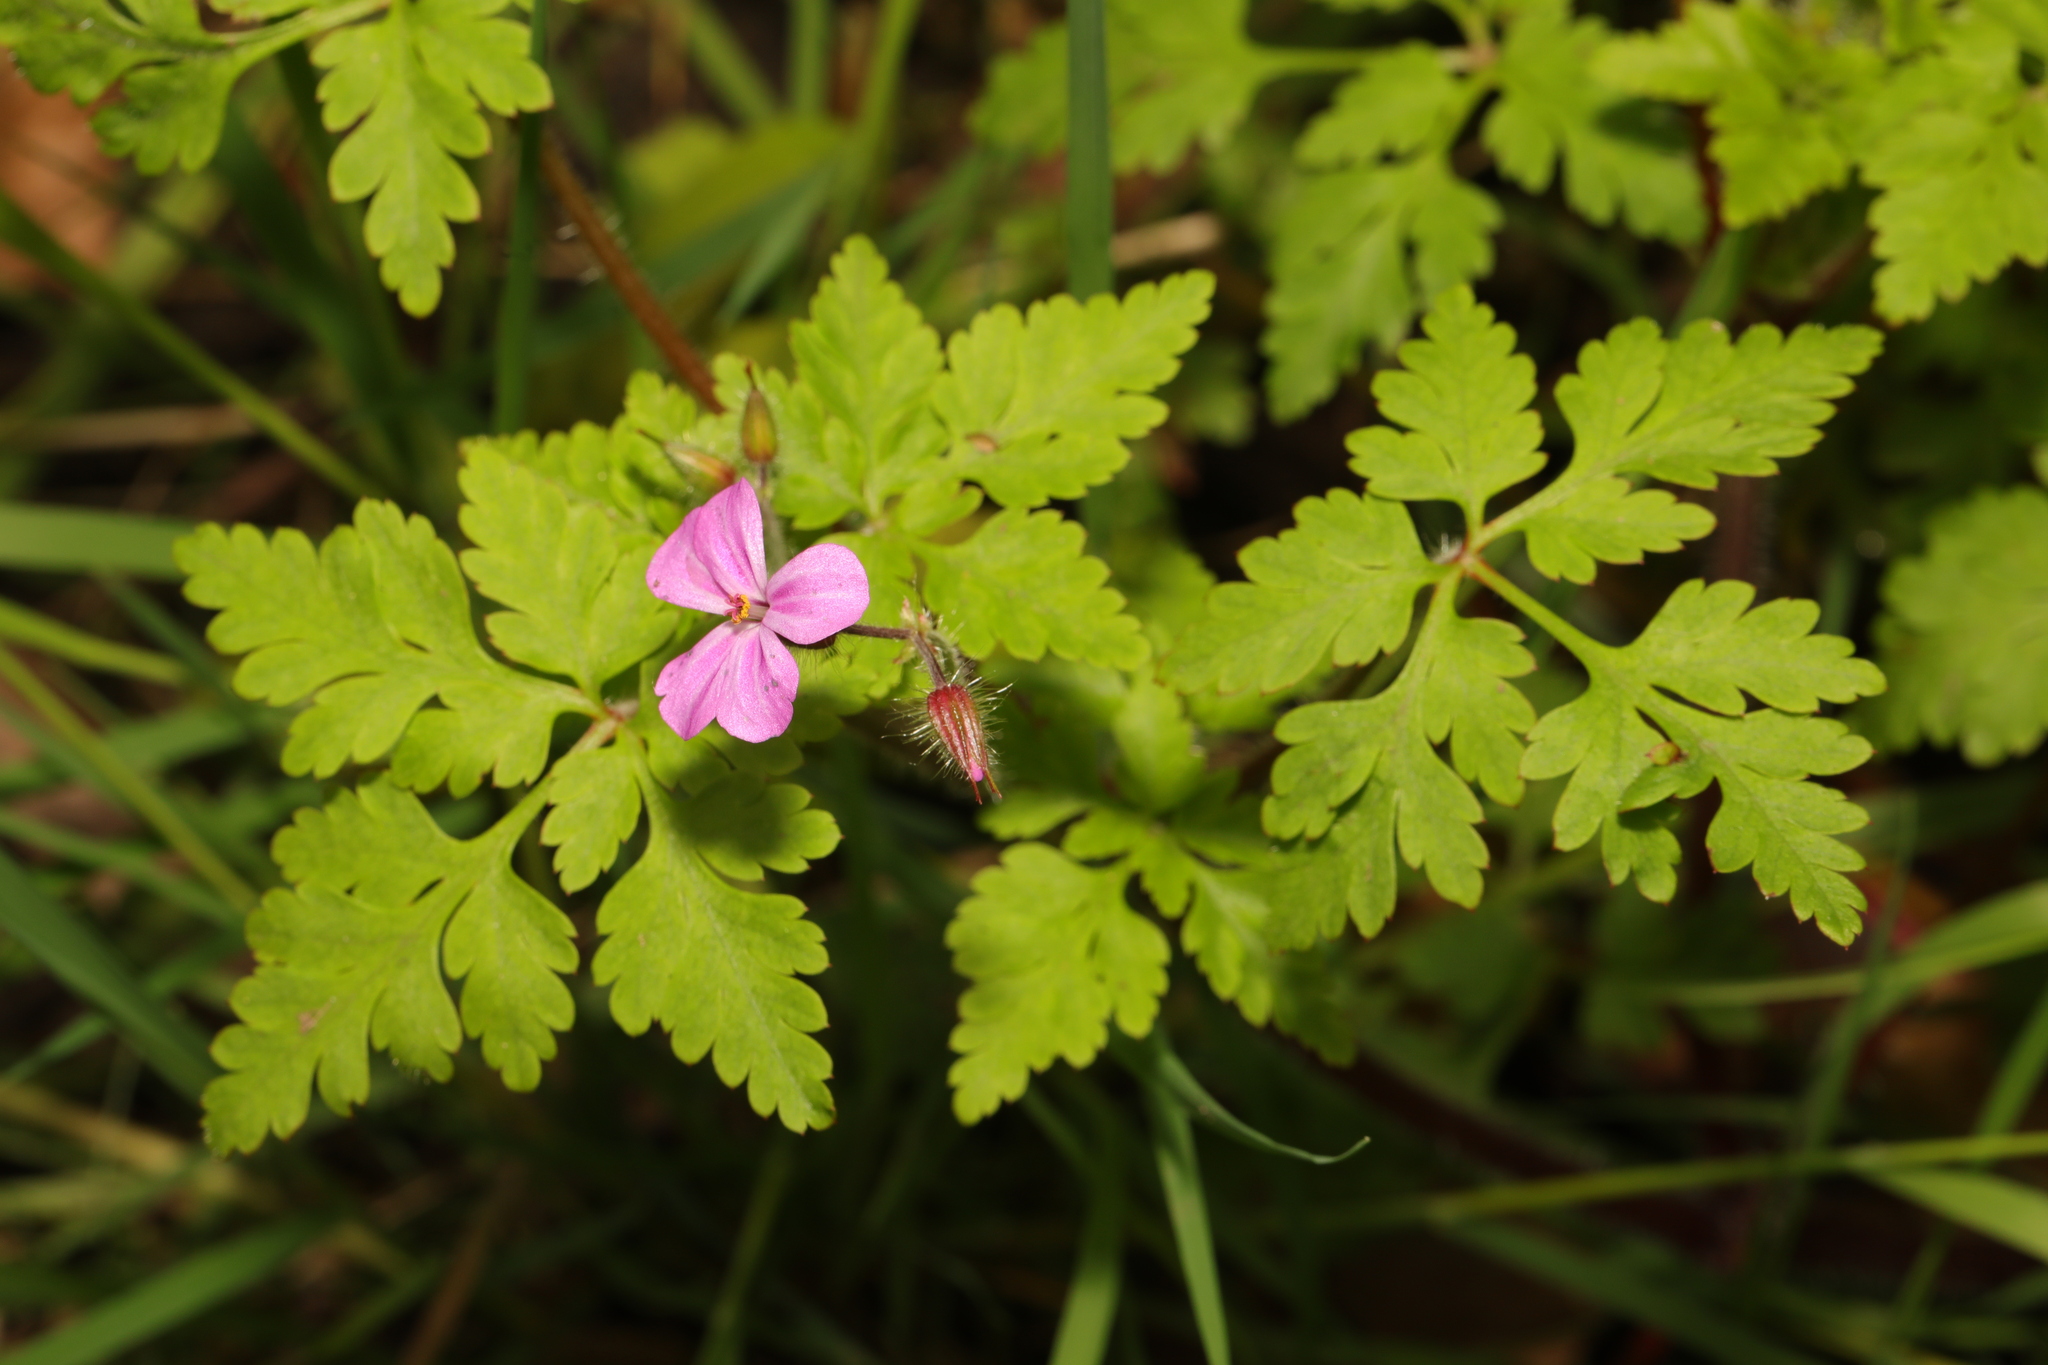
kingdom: Plantae
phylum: Tracheophyta
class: Magnoliopsida
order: Geraniales
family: Geraniaceae
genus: Geranium
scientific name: Geranium robertianum
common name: Herb-robert
